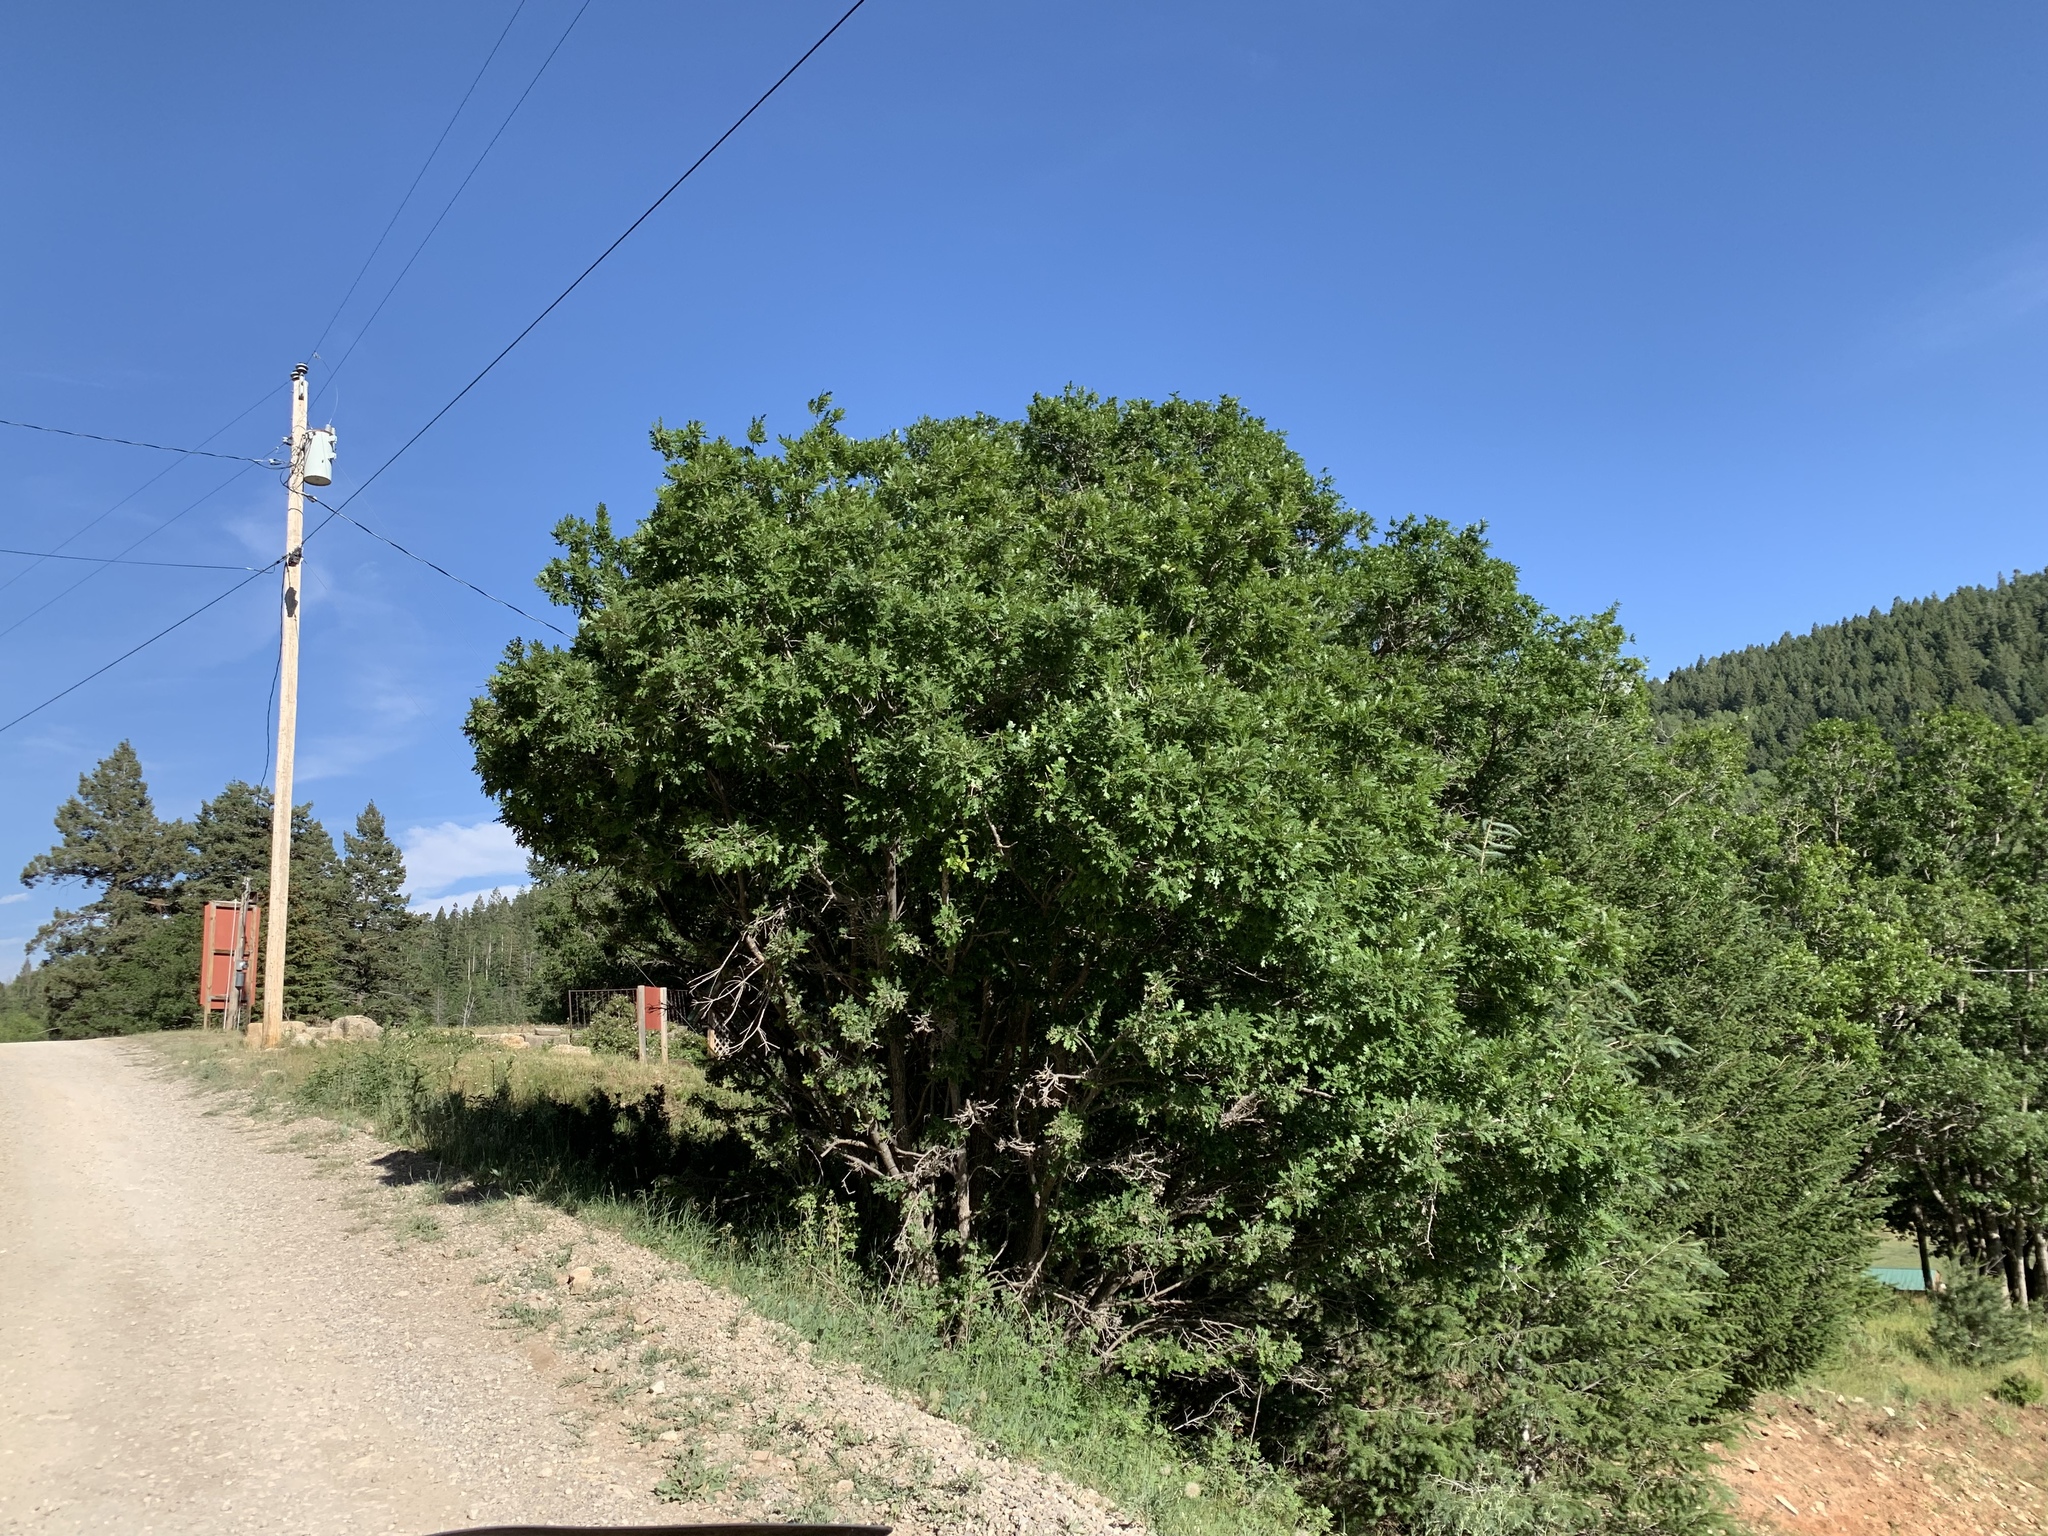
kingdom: Plantae
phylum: Tracheophyta
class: Magnoliopsida
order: Fagales
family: Fagaceae
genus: Quercus
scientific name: Quercus gambelii
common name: Gambel oak
